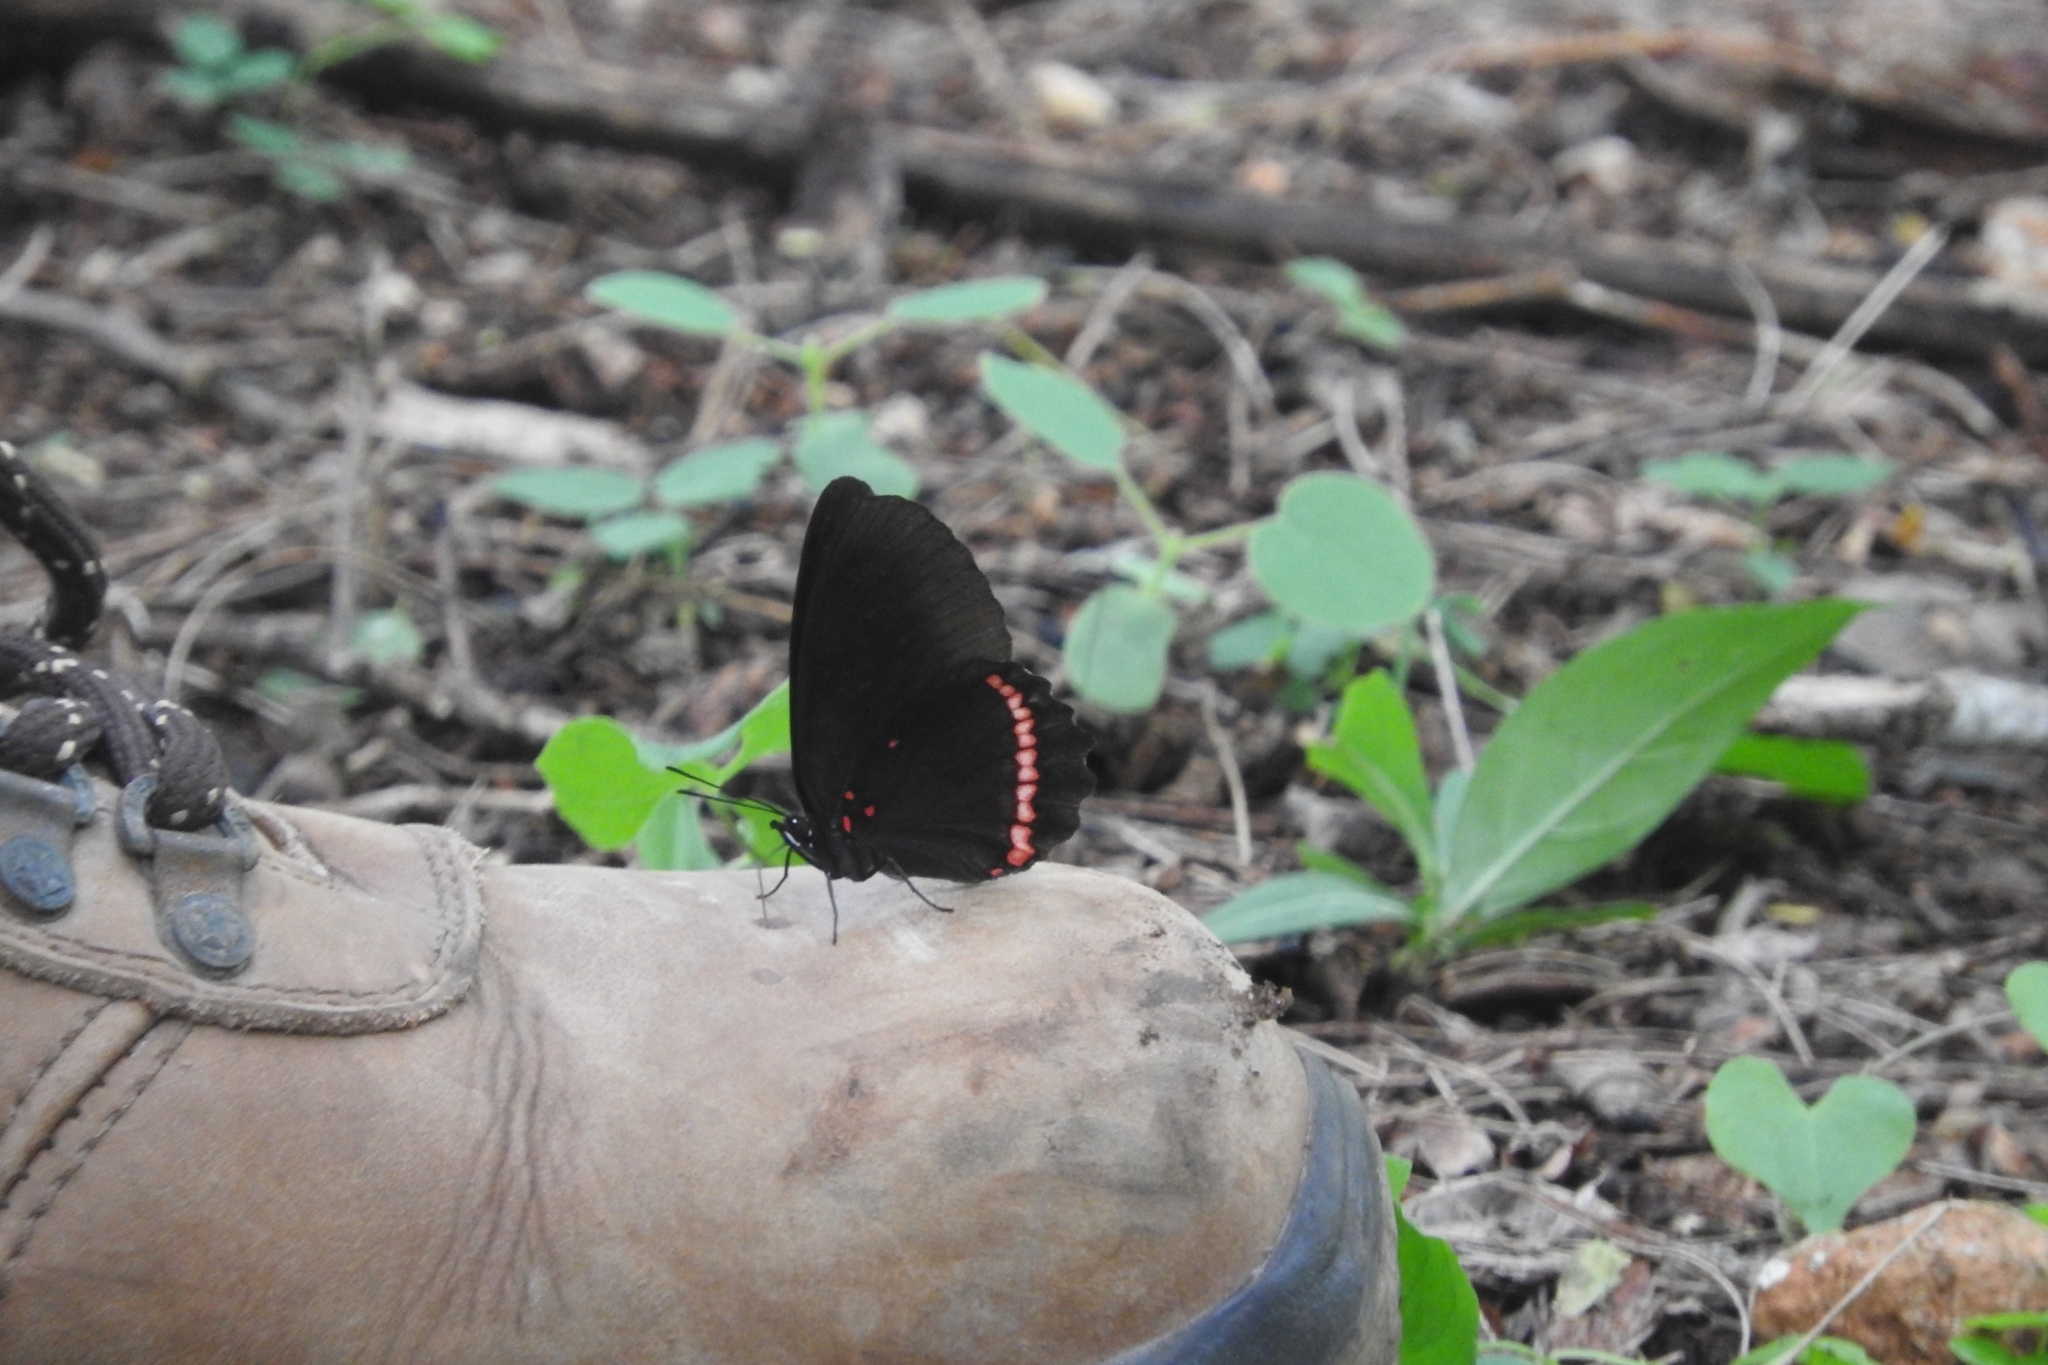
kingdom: Animalia
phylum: Arthropoda
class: Insecta
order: Lepidoptera
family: Nymphalidae
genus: Biblis
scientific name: Biblis aganisa
